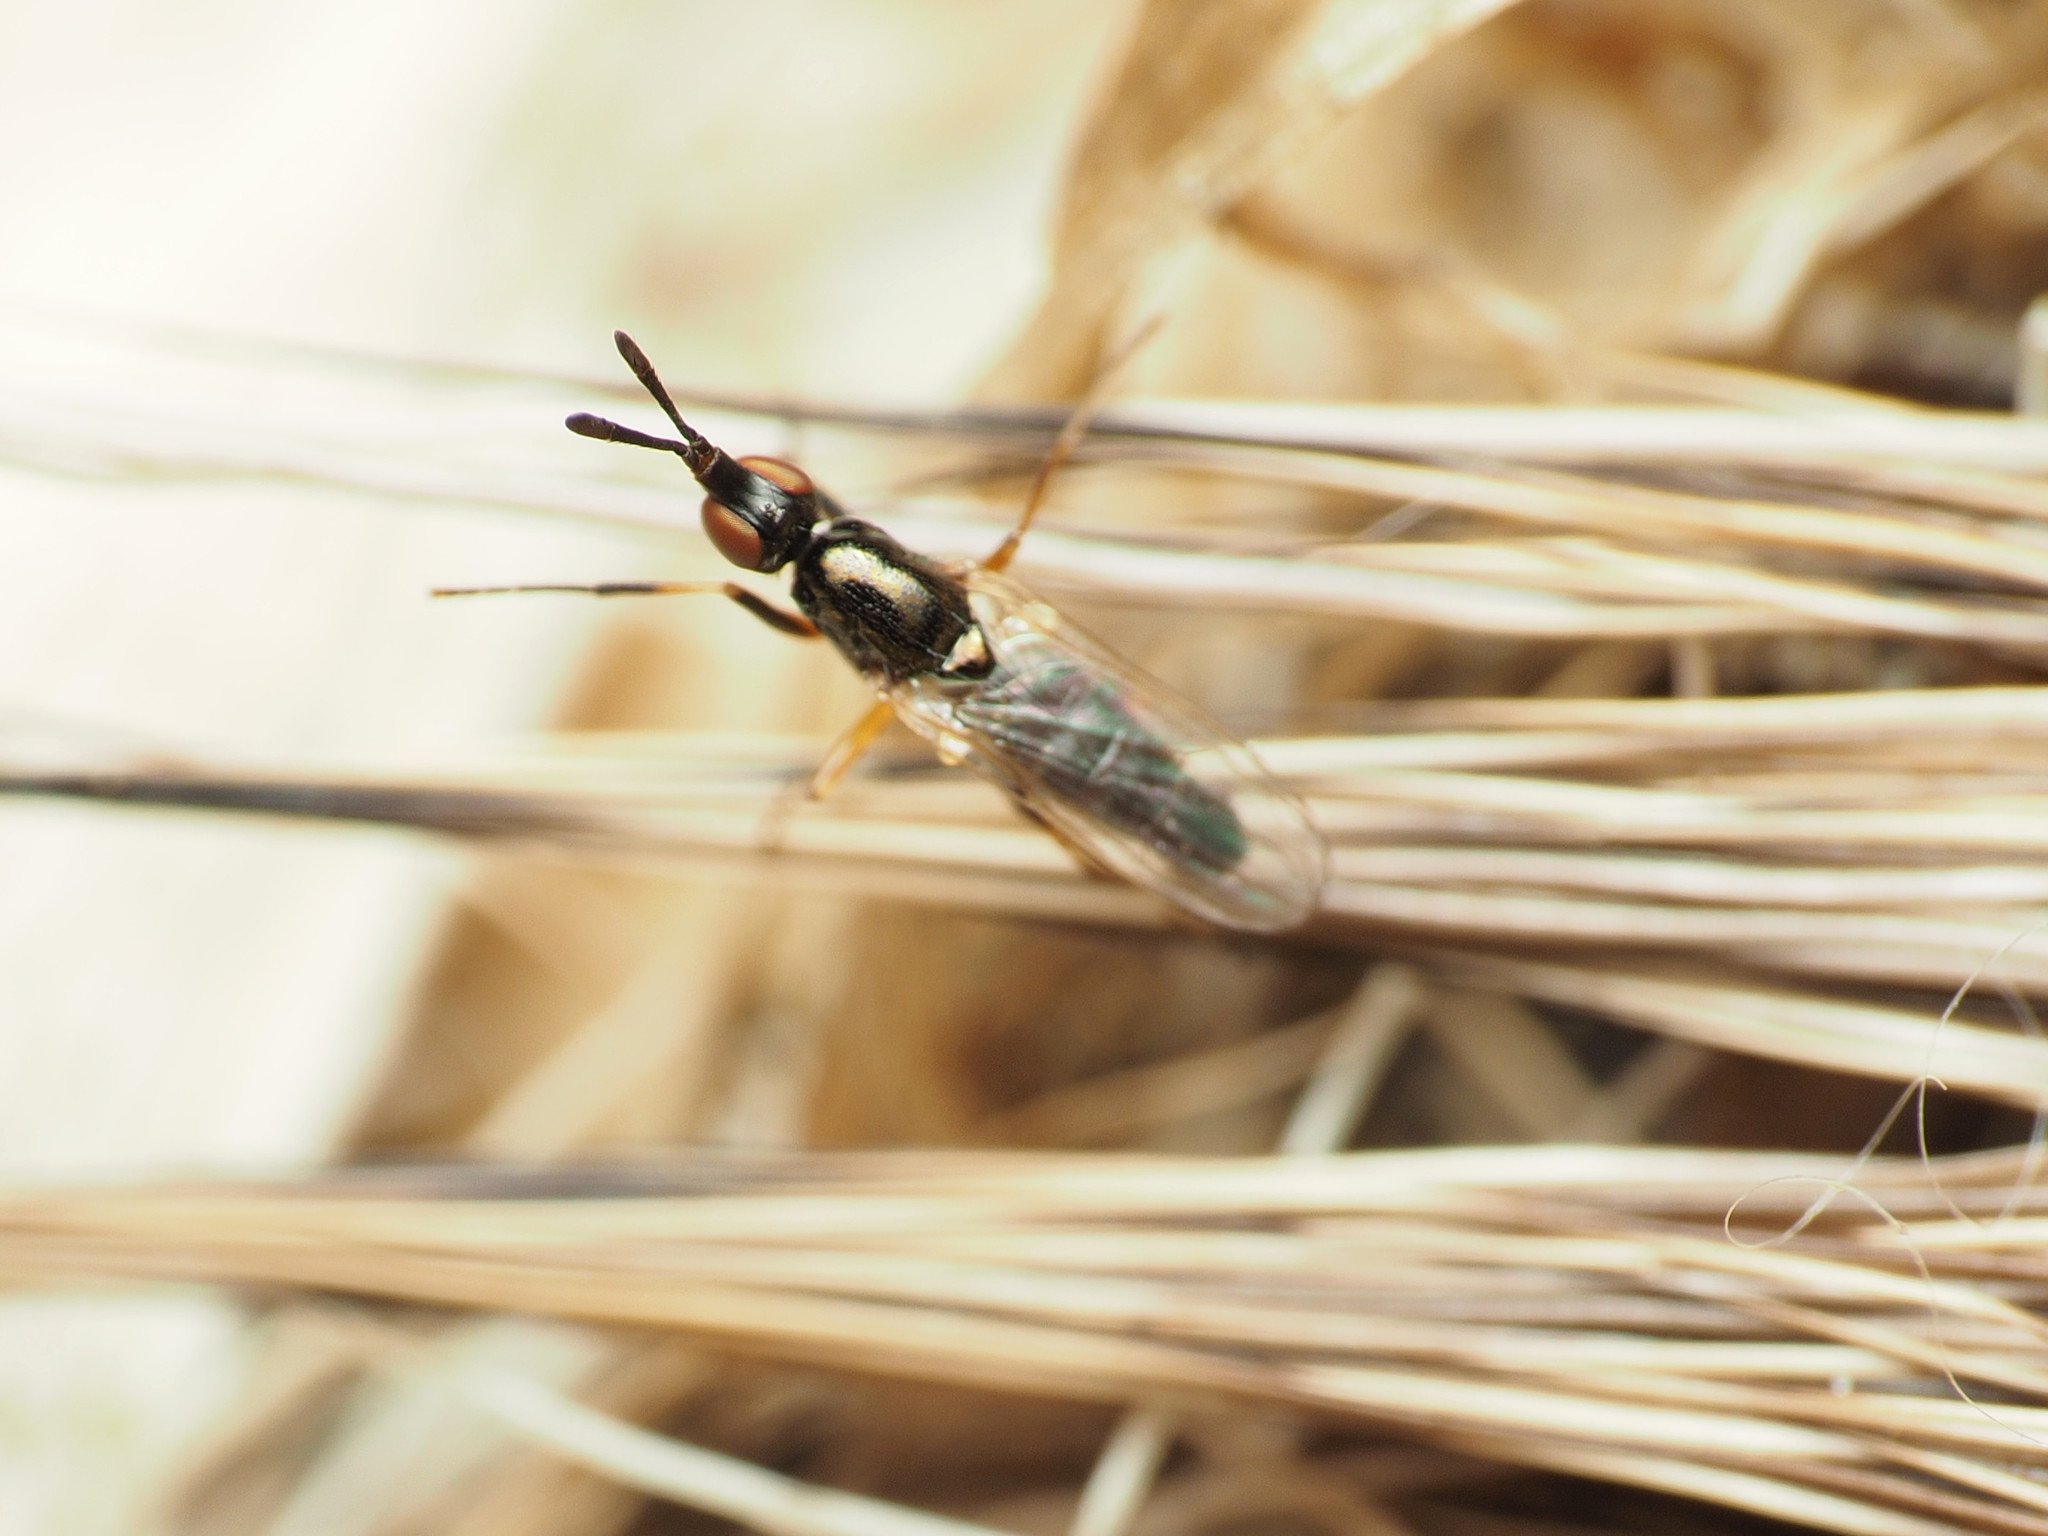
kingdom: Animalia
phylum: Arthropoda
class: Insecta
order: Diptera
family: Piophilidae
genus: Prochyliza
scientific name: Prochyliza xanthostoma
